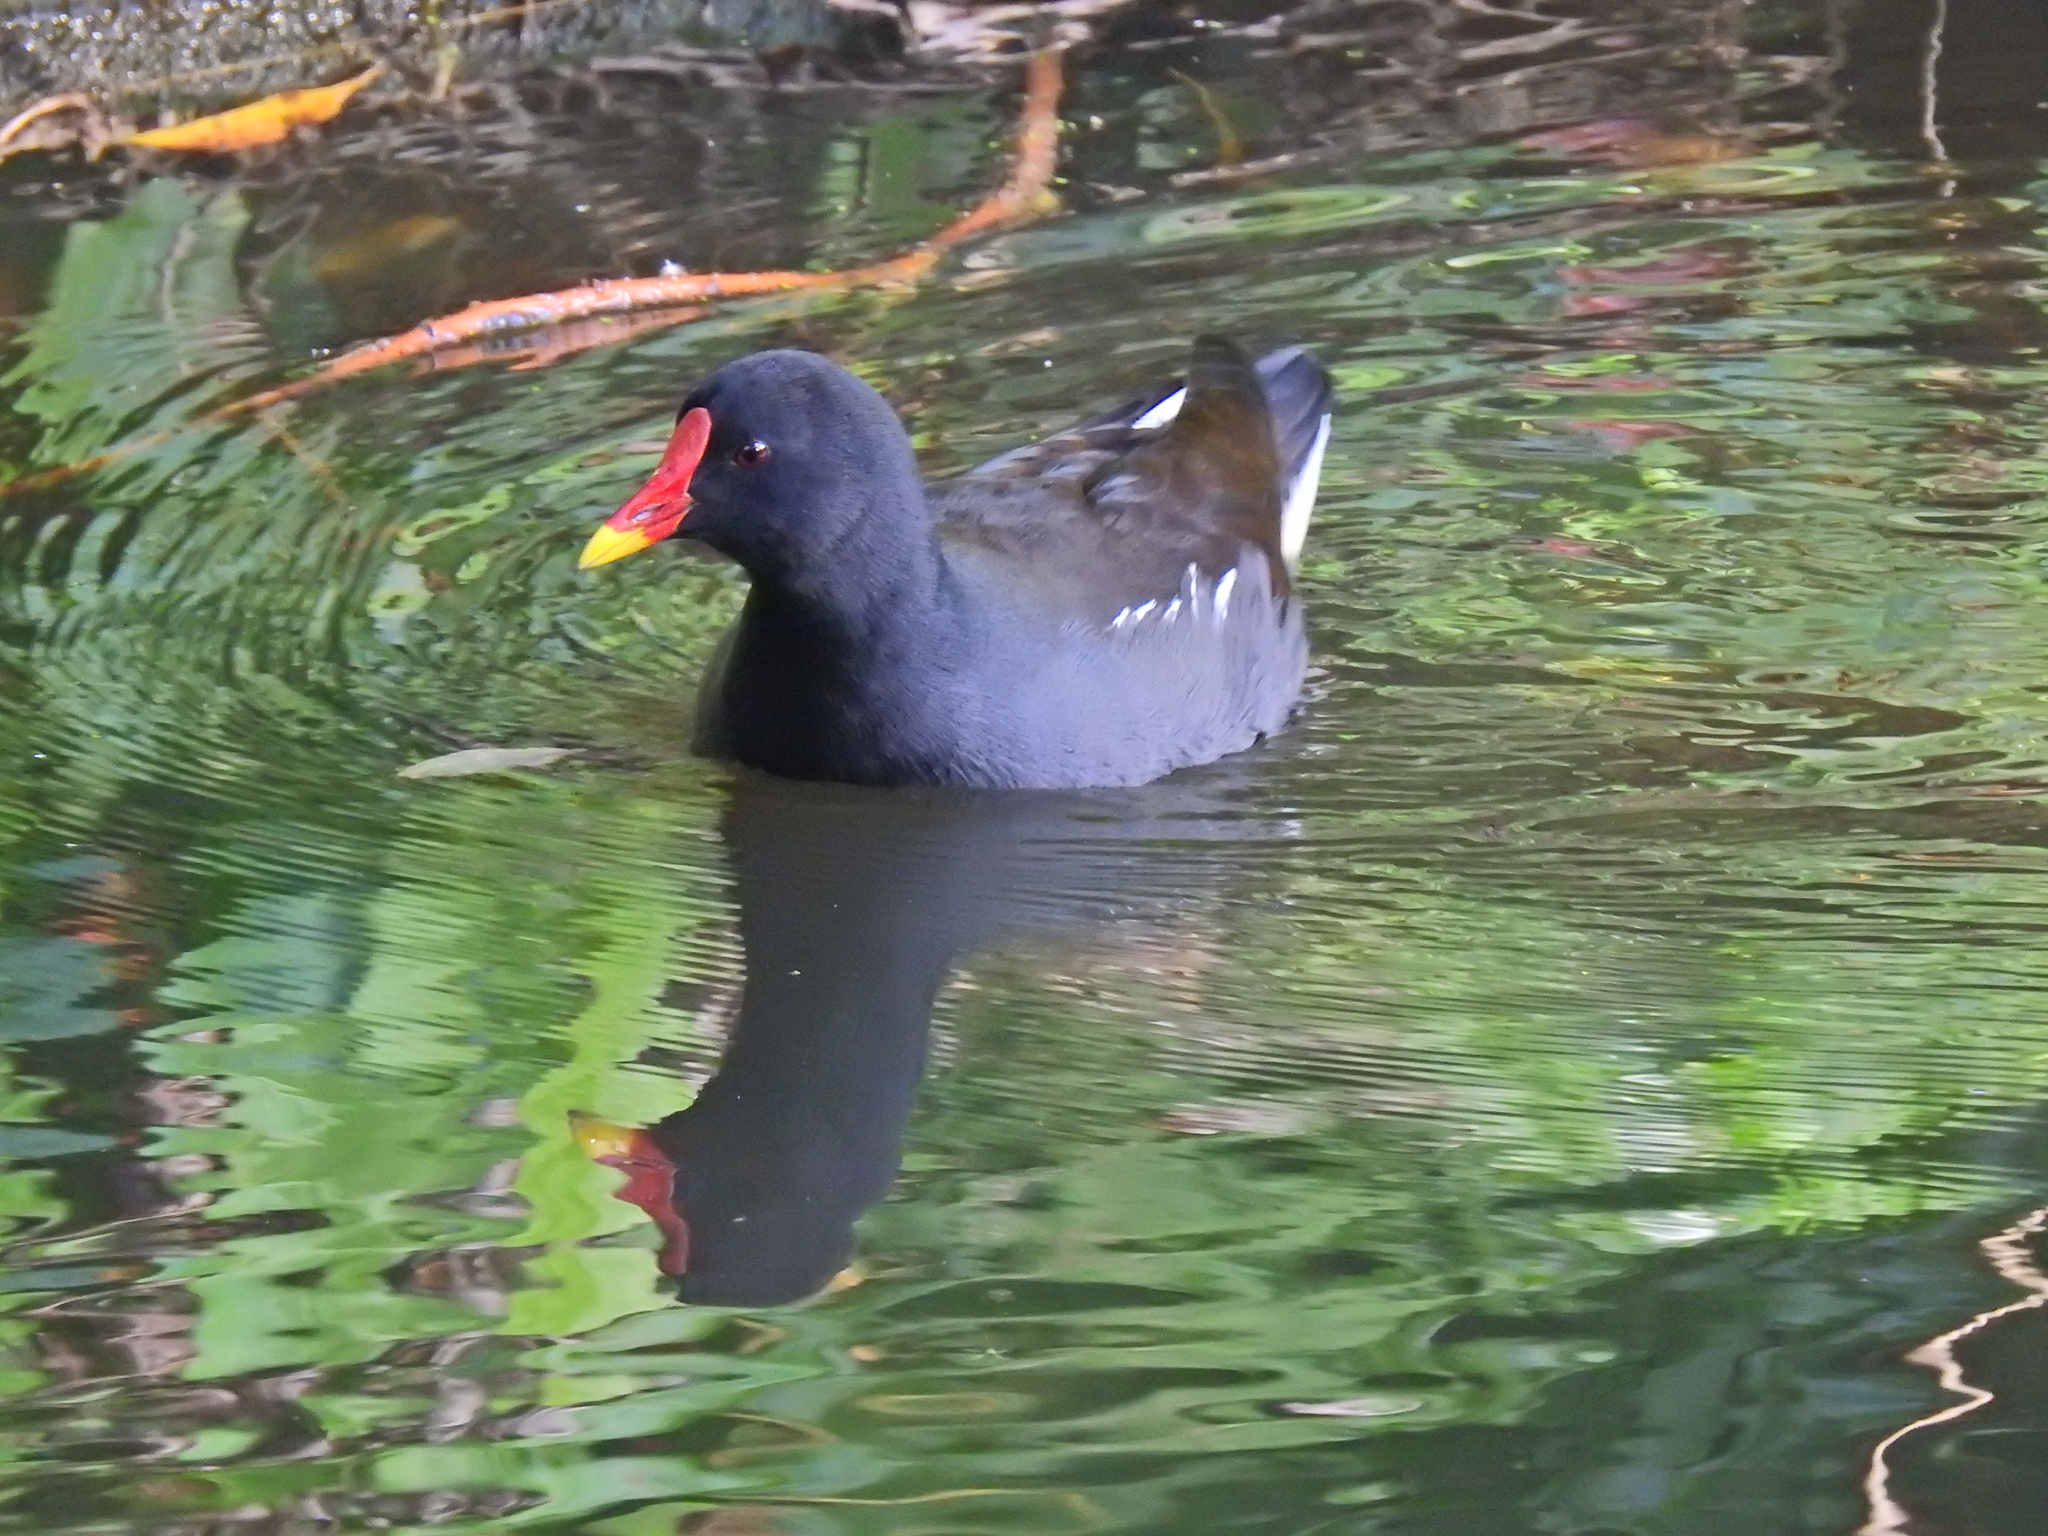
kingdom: Animalia
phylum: Chordata
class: Aves
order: Gruiformes
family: Rallidae
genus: Gallinula
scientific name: Gallinula chloropus
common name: Common moorhen
